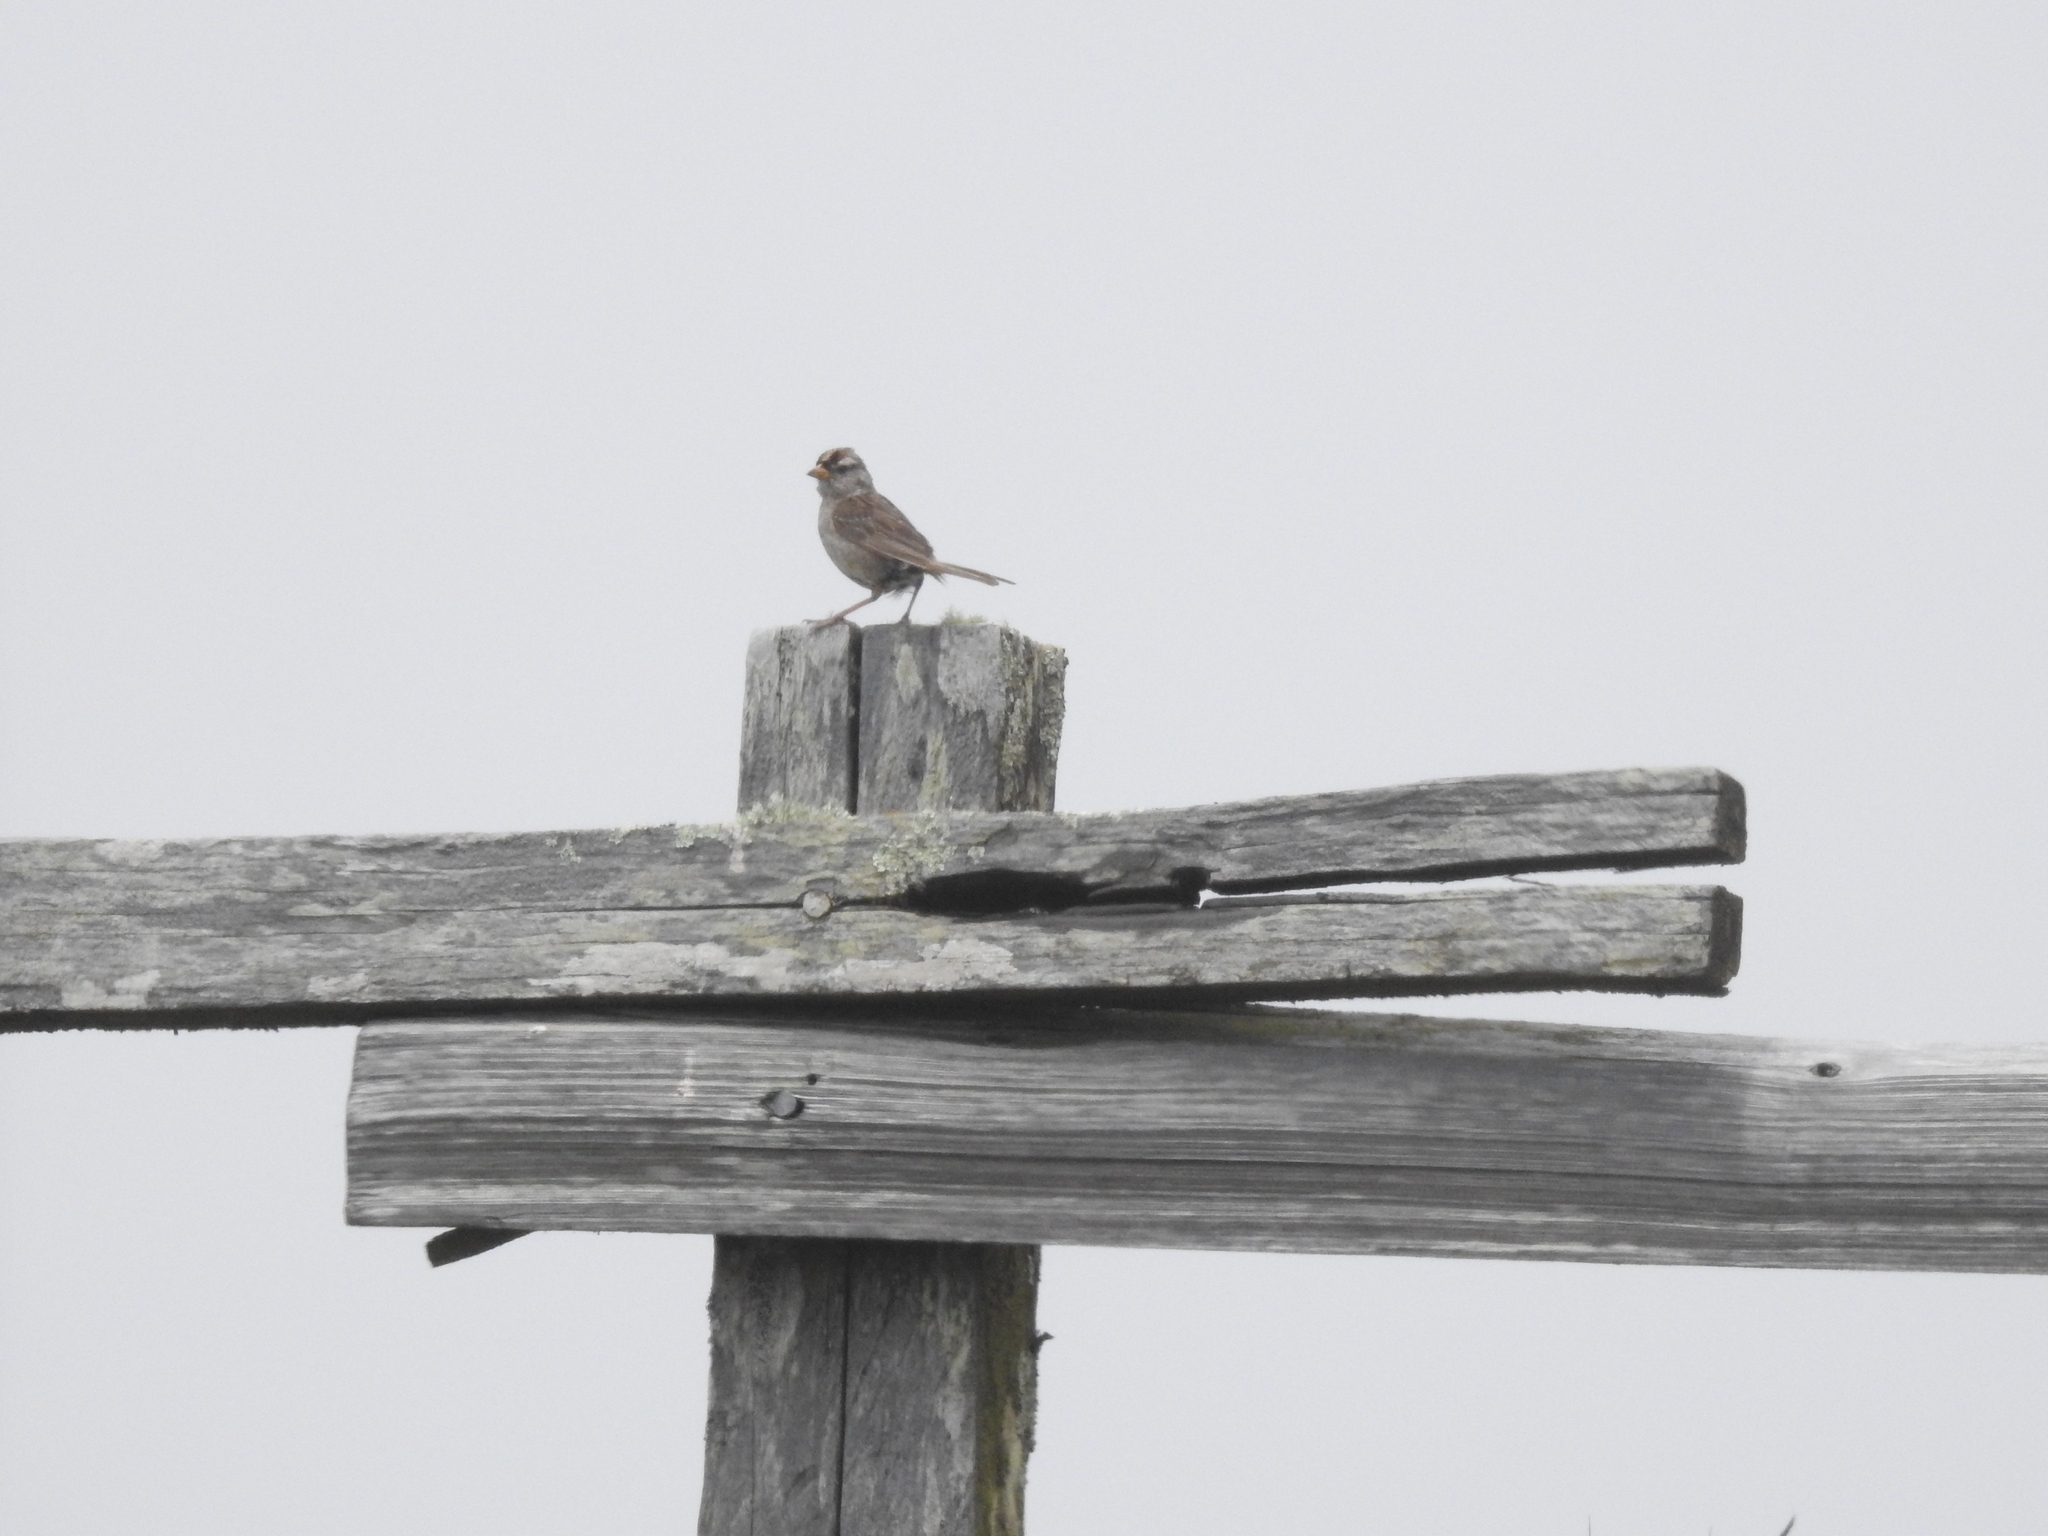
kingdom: Animalia
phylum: Chordata
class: Aves
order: Passeriformes
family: Passerellidae
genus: Zonotrichia
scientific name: Zonotrichia leucophrys
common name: White-crowned sparrow
